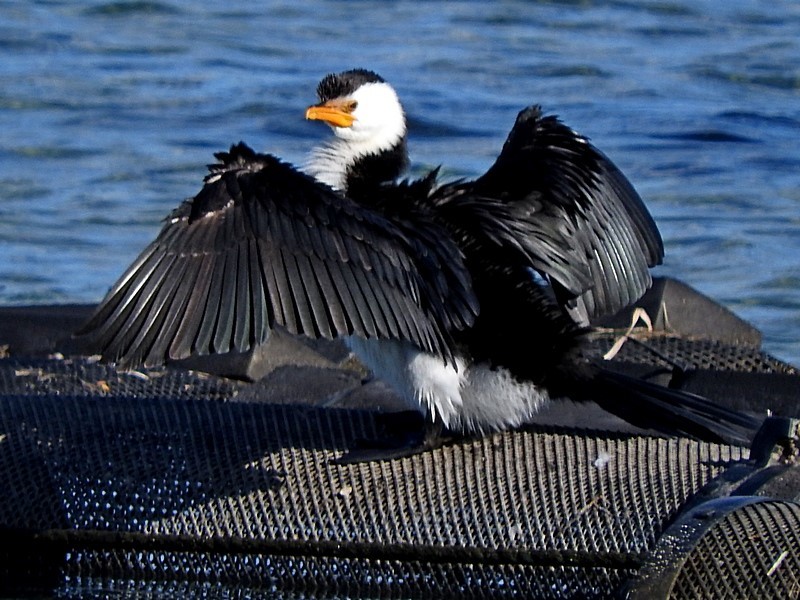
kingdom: Animalia
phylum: Chordata
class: Aves
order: Suliformes
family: Phalacrocoracidae
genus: Microcarbo
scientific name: Microcarbo melanoleucos
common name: Little pied cormorant
